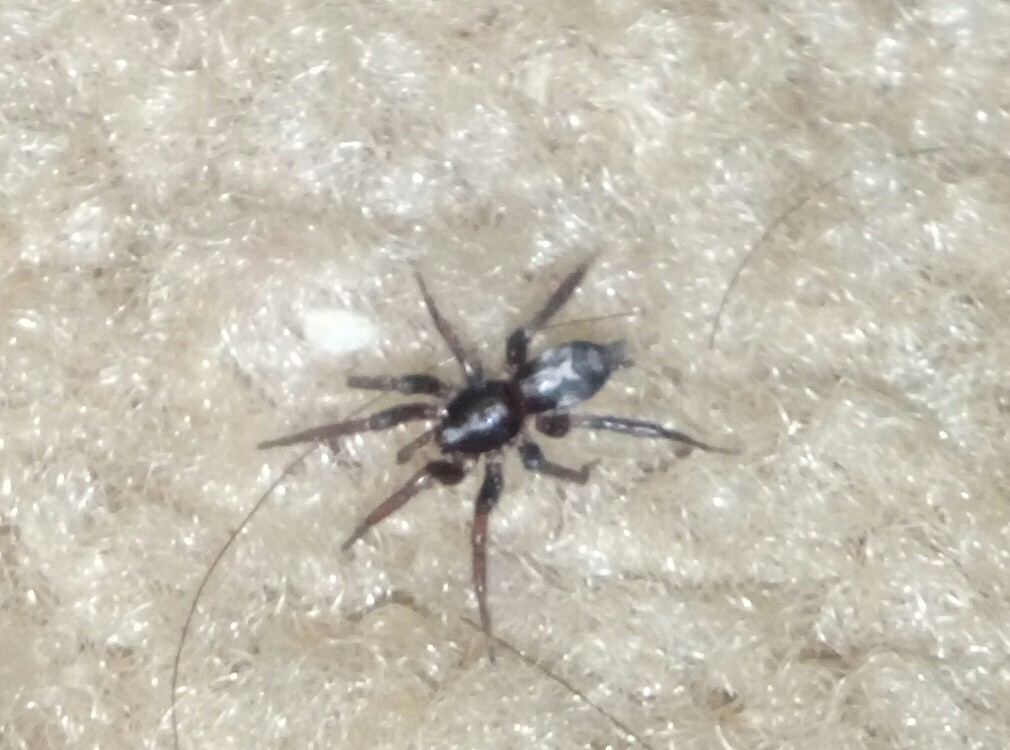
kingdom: Animalia
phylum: Arthropoda
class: Arachnida
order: Araneae
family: Gnaphosidae
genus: Herpyllus
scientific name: Herpyllus ecclesiasticus
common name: Eastern parson spider
